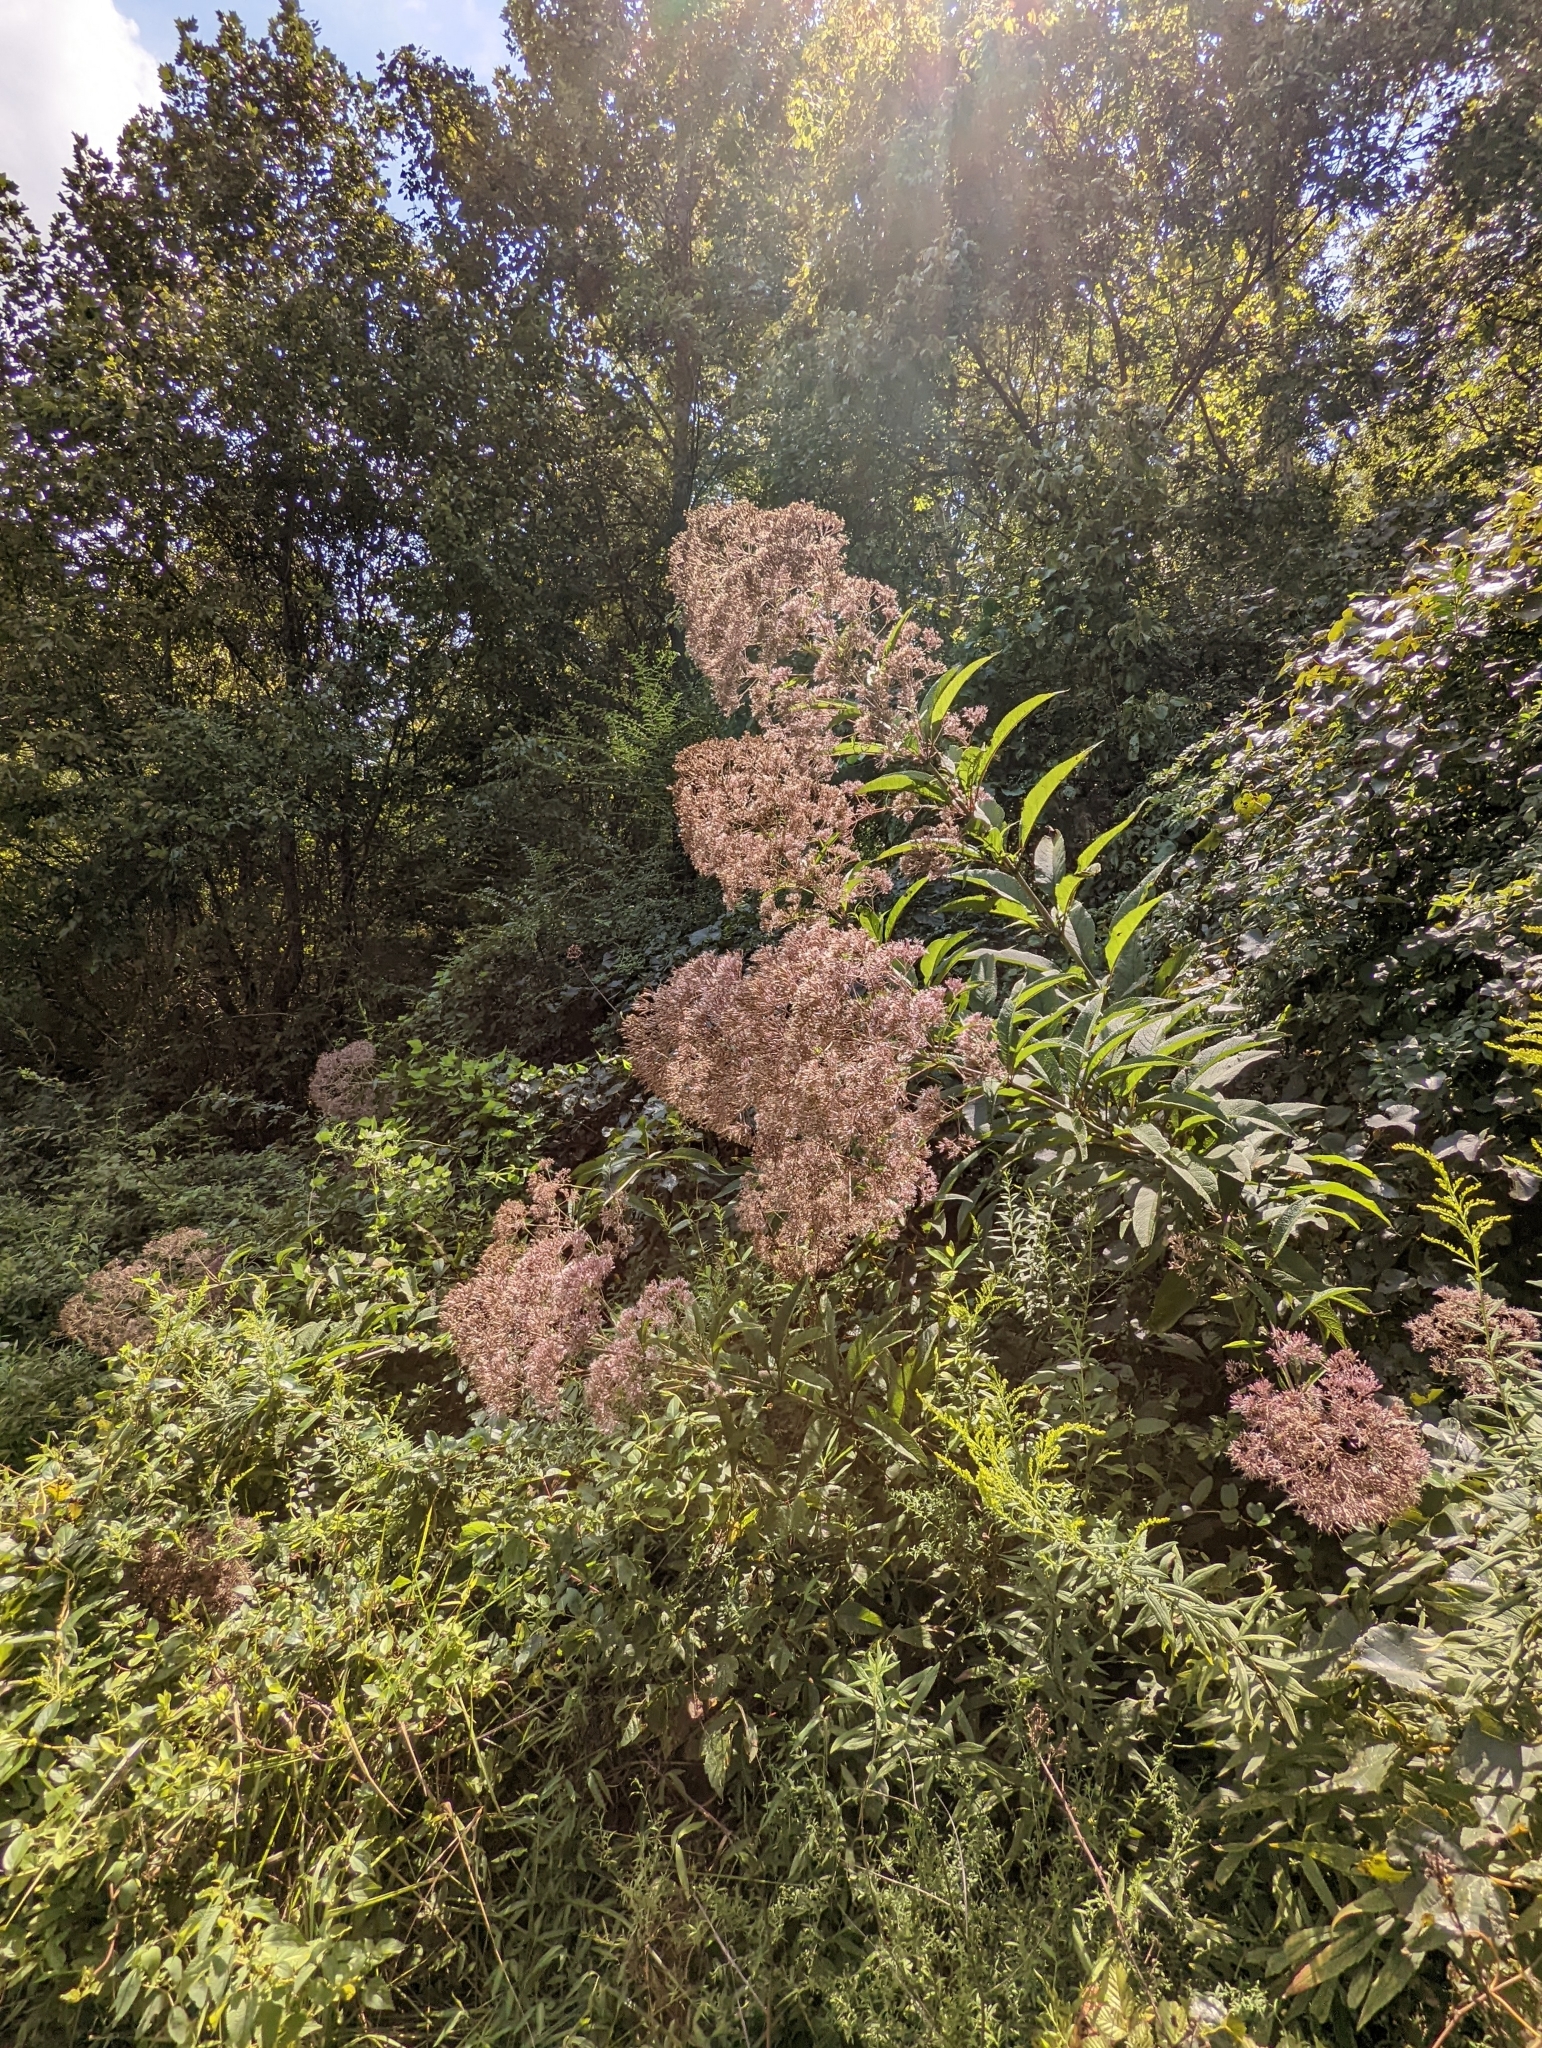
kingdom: Plantae
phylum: Tracheophyta
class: Magnoliopsida
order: Asterales
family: Asteraceae
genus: Eutrochium
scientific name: Eutrochium fistulosum
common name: Trumpetweed
